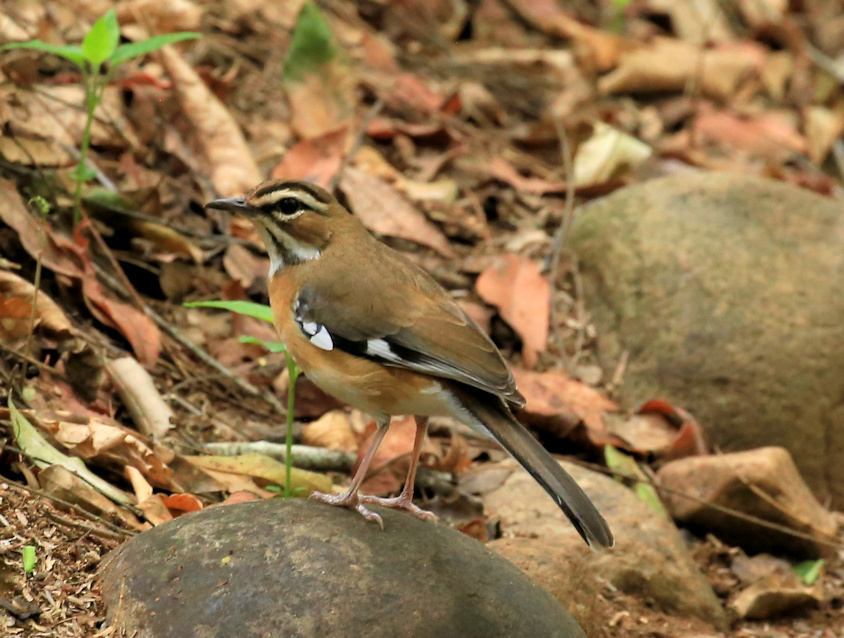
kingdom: Animalia
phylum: Chordata
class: Aves
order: Passeriformes
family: Muscicapidae
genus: Erythropygia
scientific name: Erythropygia quadrivirgata
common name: Bearded scrub robin
